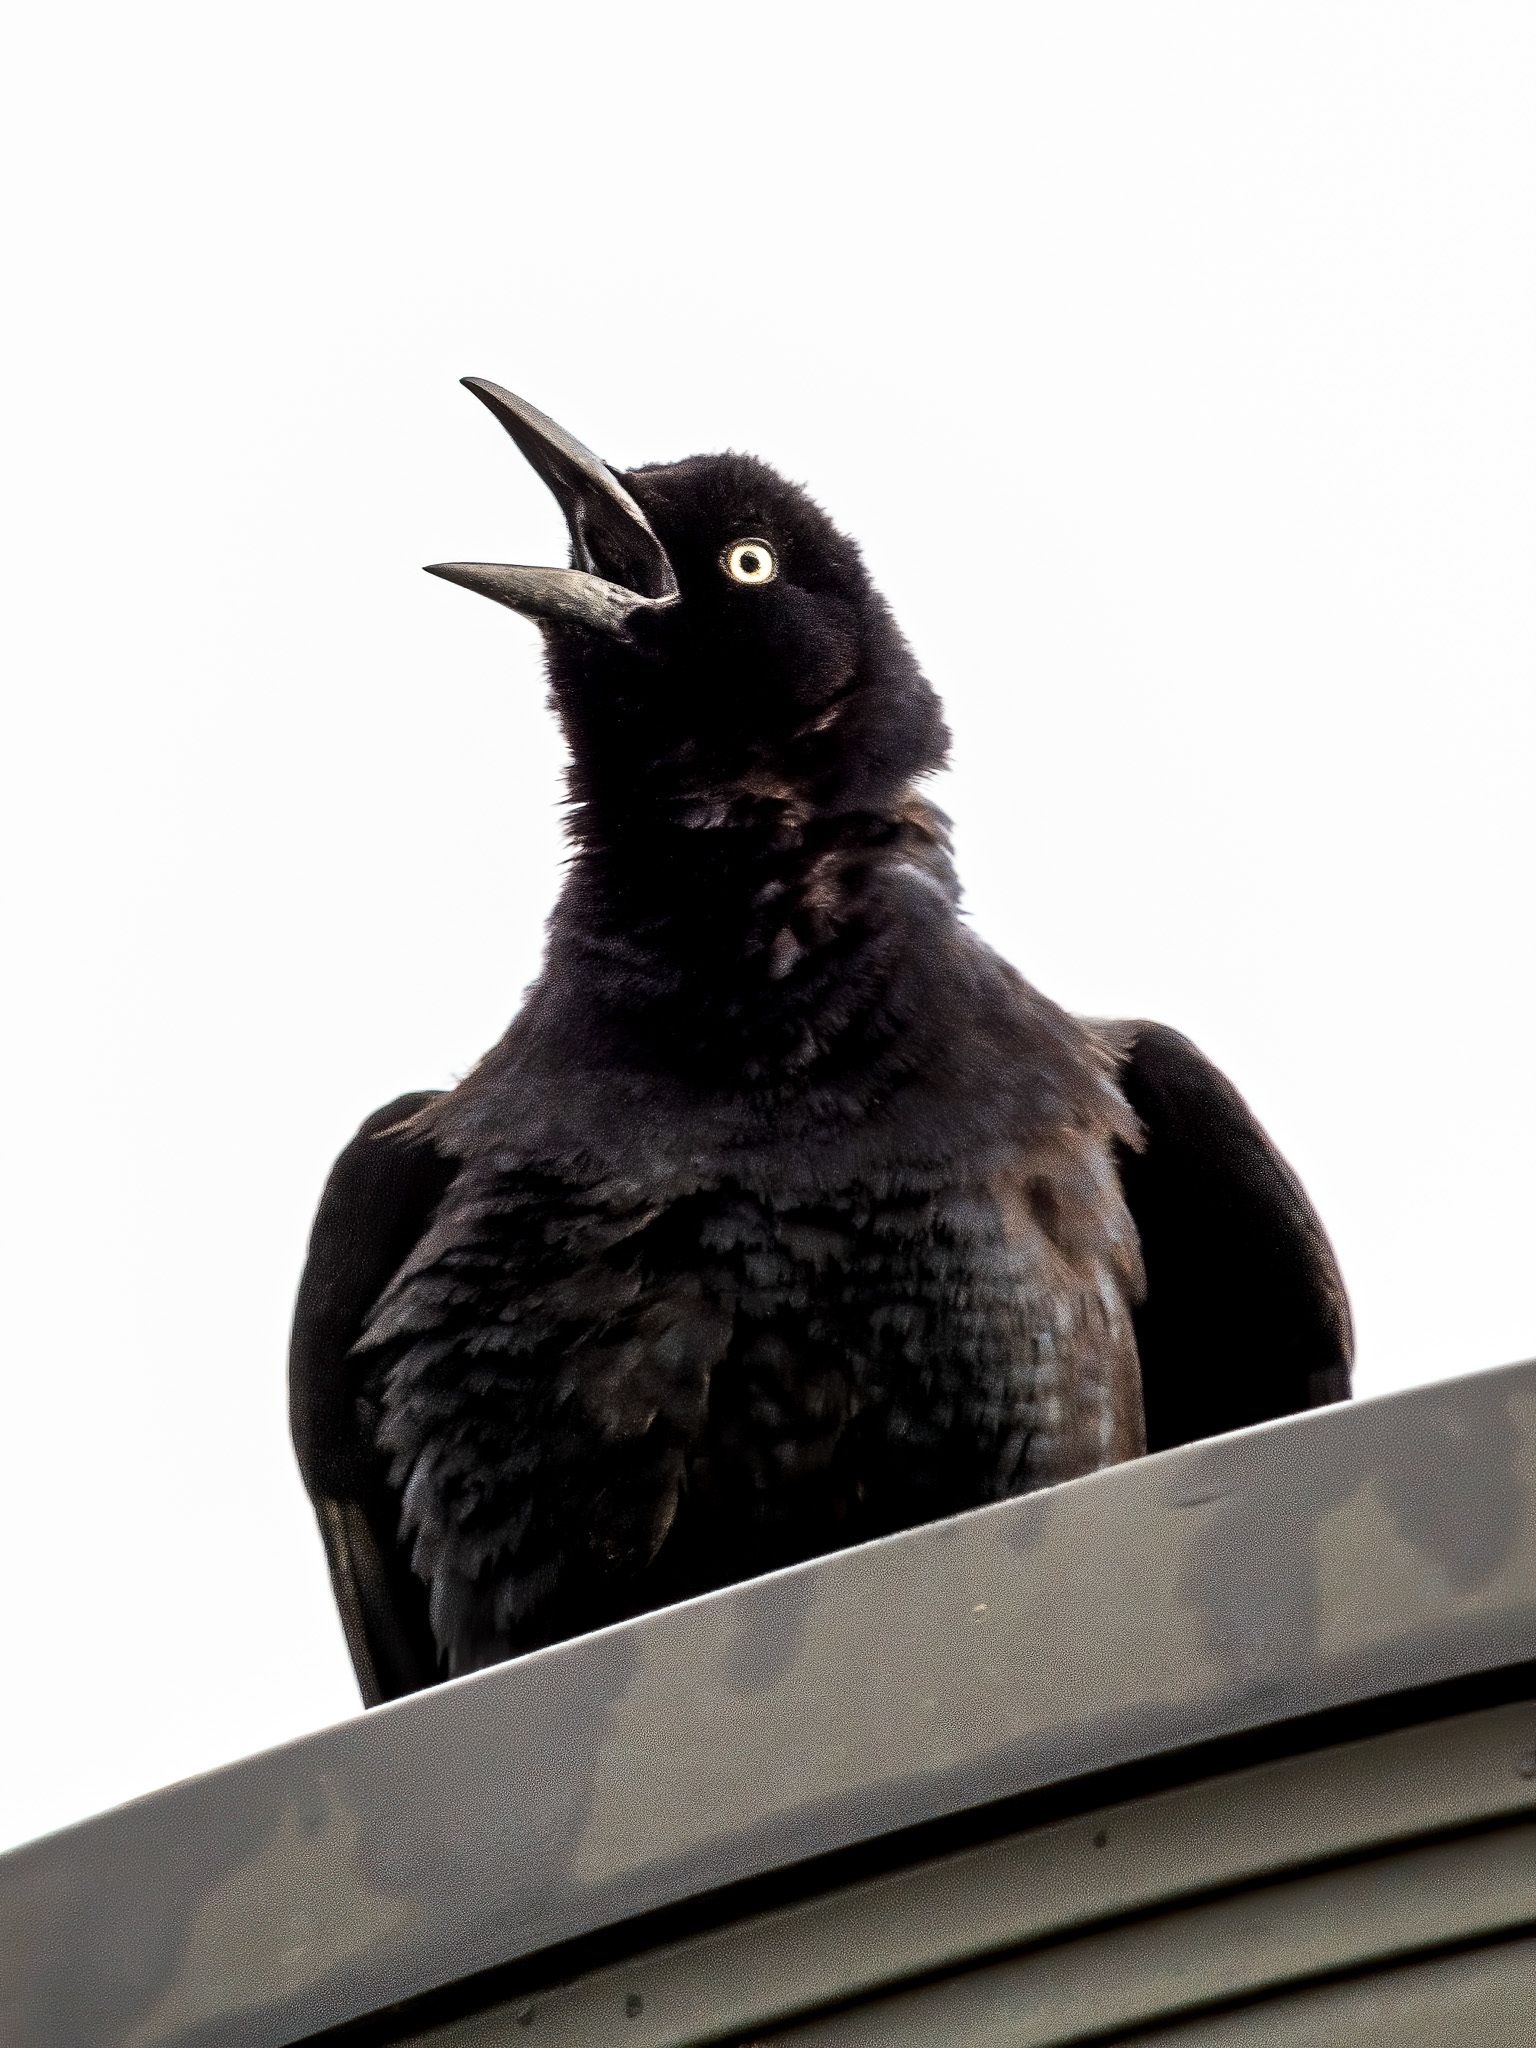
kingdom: Animalia
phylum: Chordata
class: Aves
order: Passeriformes
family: Icteridae
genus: Quiscalus
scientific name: Quiscalus mexicanus
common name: Great-tailed grackle
